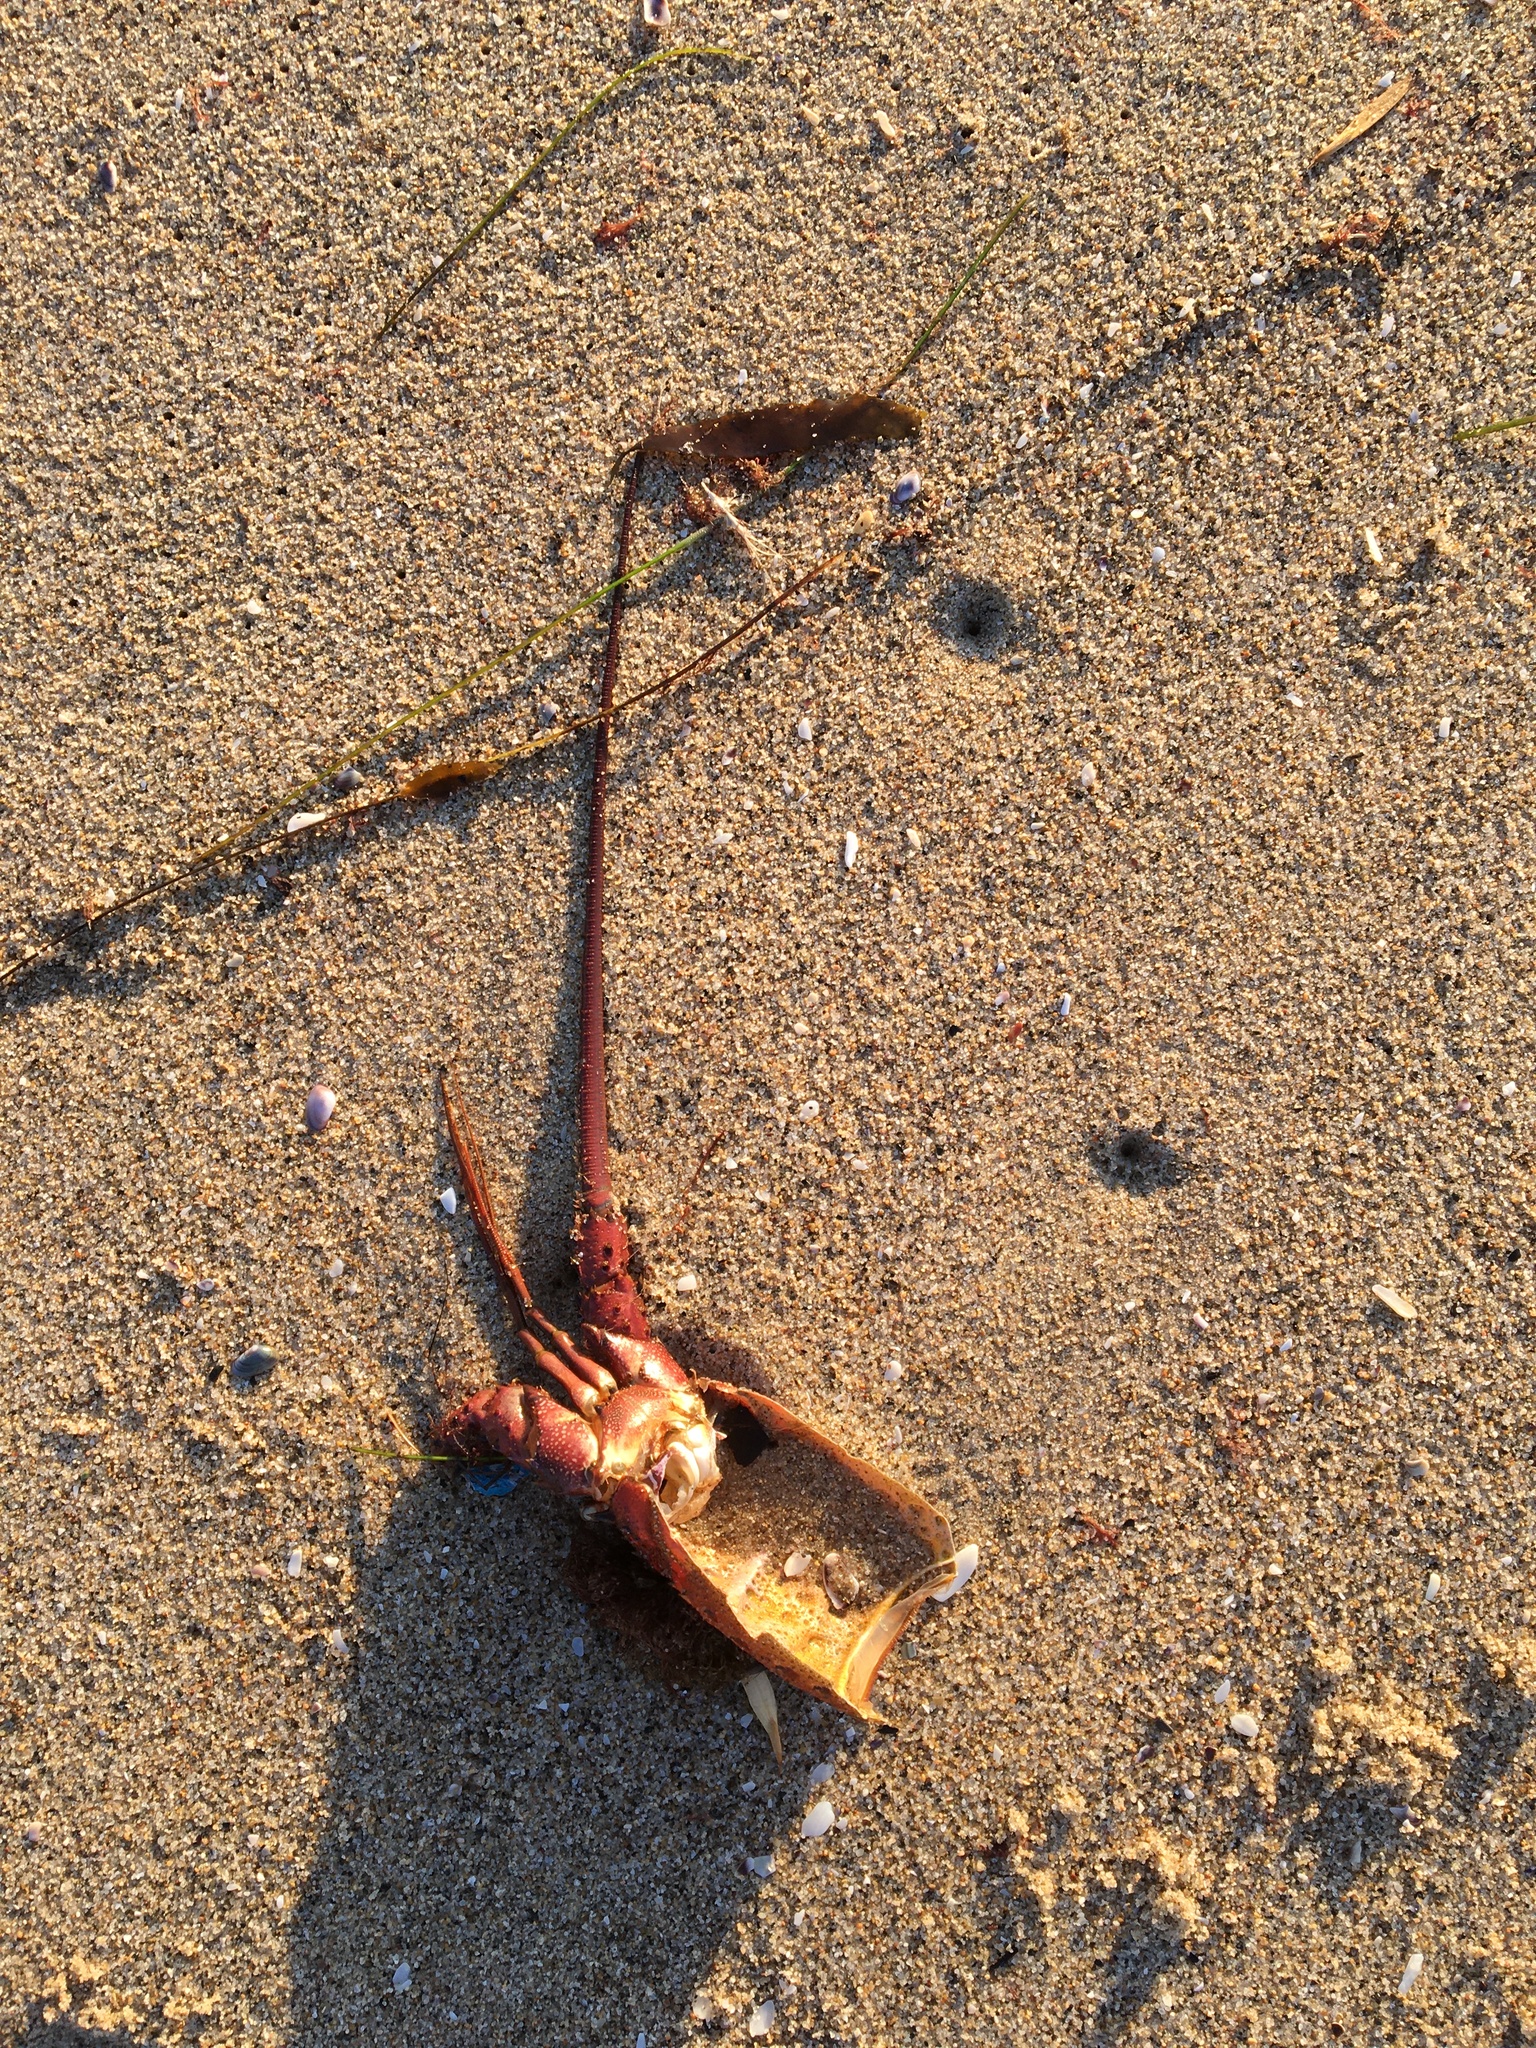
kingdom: Animalia
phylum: Arthropoda
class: Malacostraca
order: Decapoda
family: Palinuridae
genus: Panulirus
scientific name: Panulirus interruptus
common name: California spiny lobster
